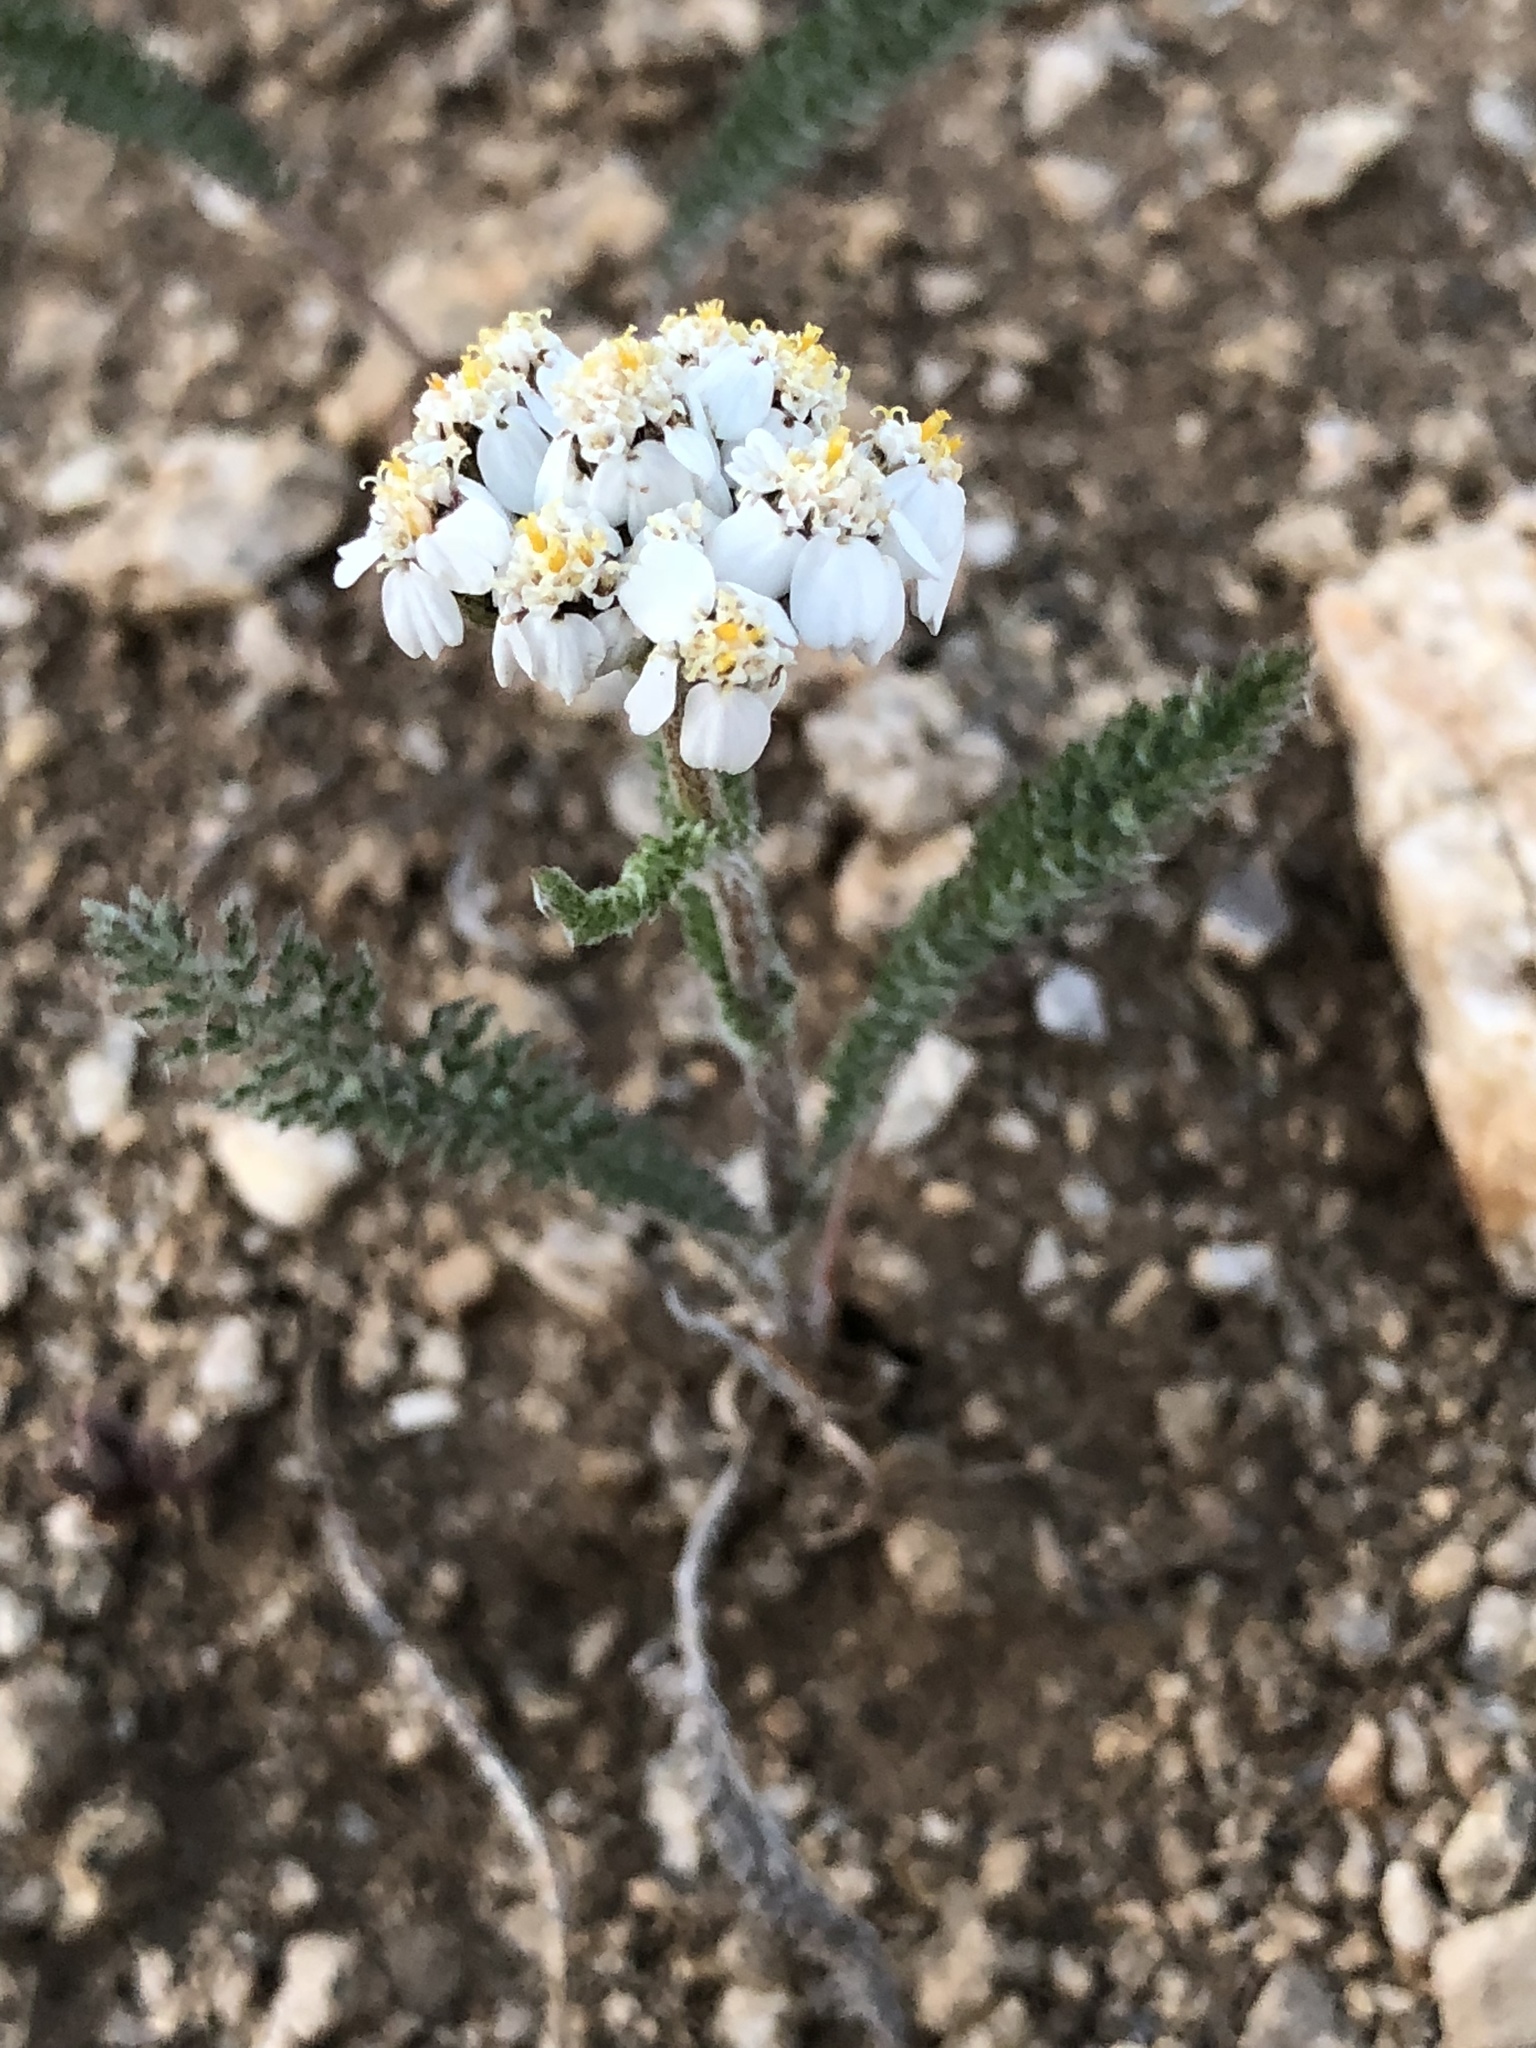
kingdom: Plantae
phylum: Tracheophyta
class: Magnoliopsida
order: Asterales
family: Asteraceae
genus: Achillea
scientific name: Achillea millefolium
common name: Yarrow
